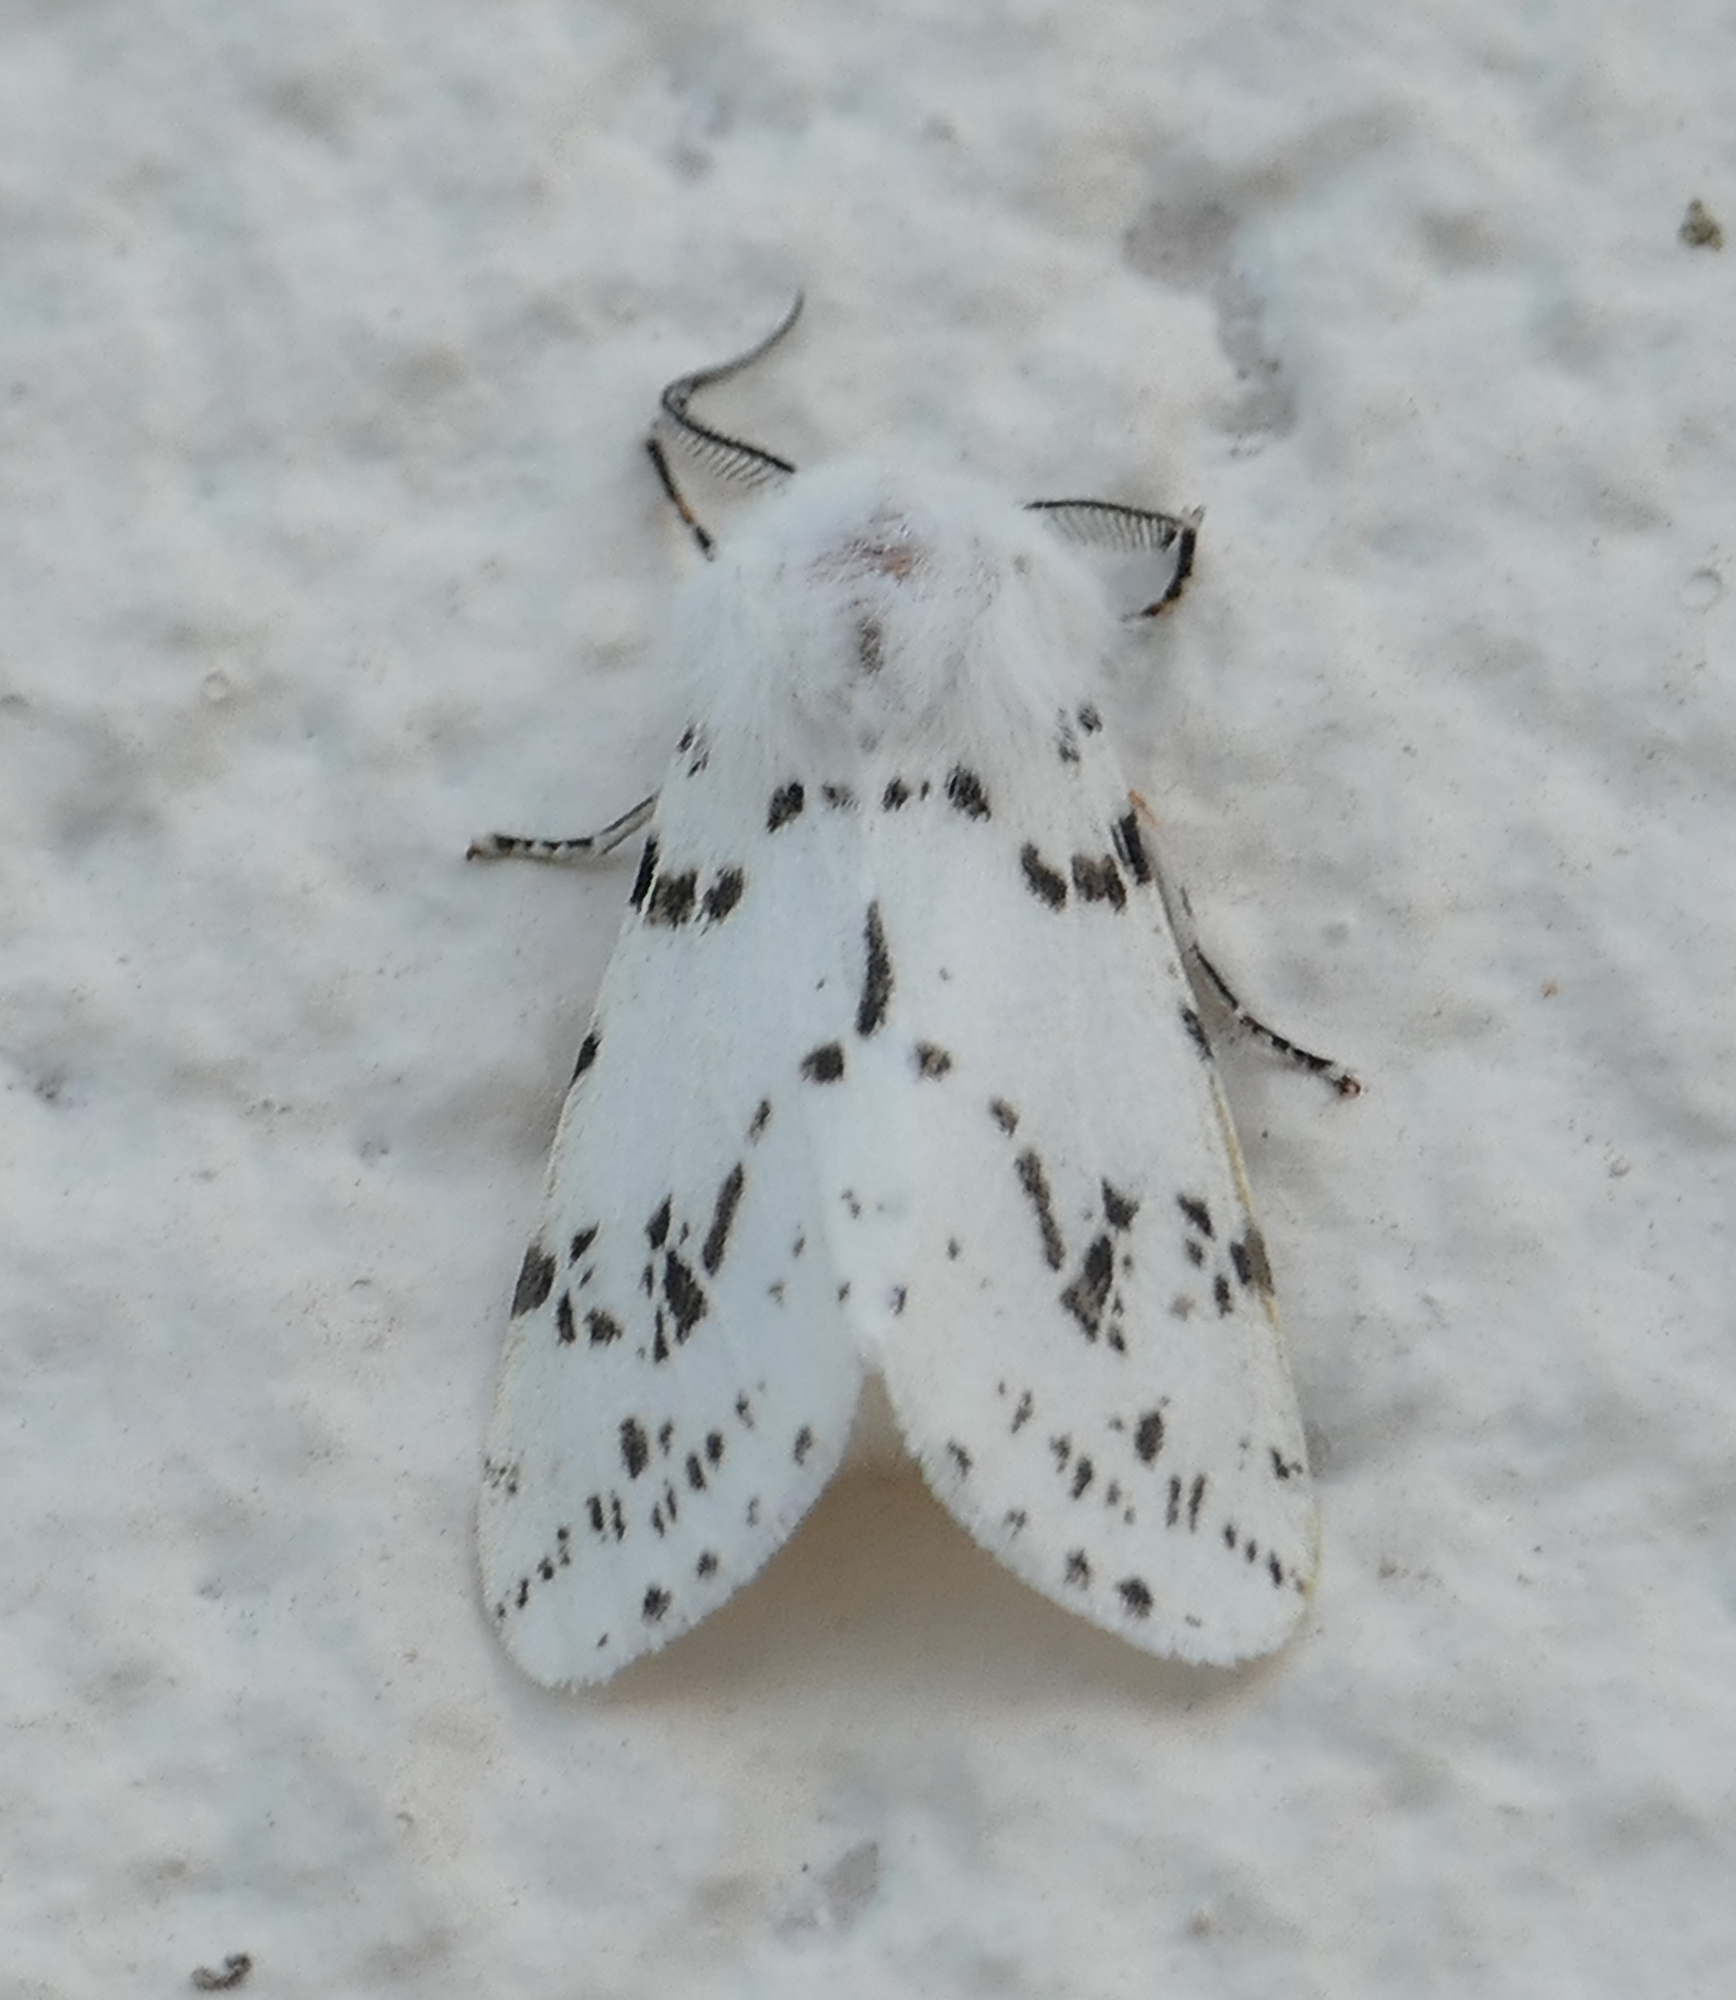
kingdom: Animalia
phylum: Arthropoda
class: Insecta
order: Lepidoptera
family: Erebidae
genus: Hyphantria
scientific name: Hyphantria cunea
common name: American white moth
